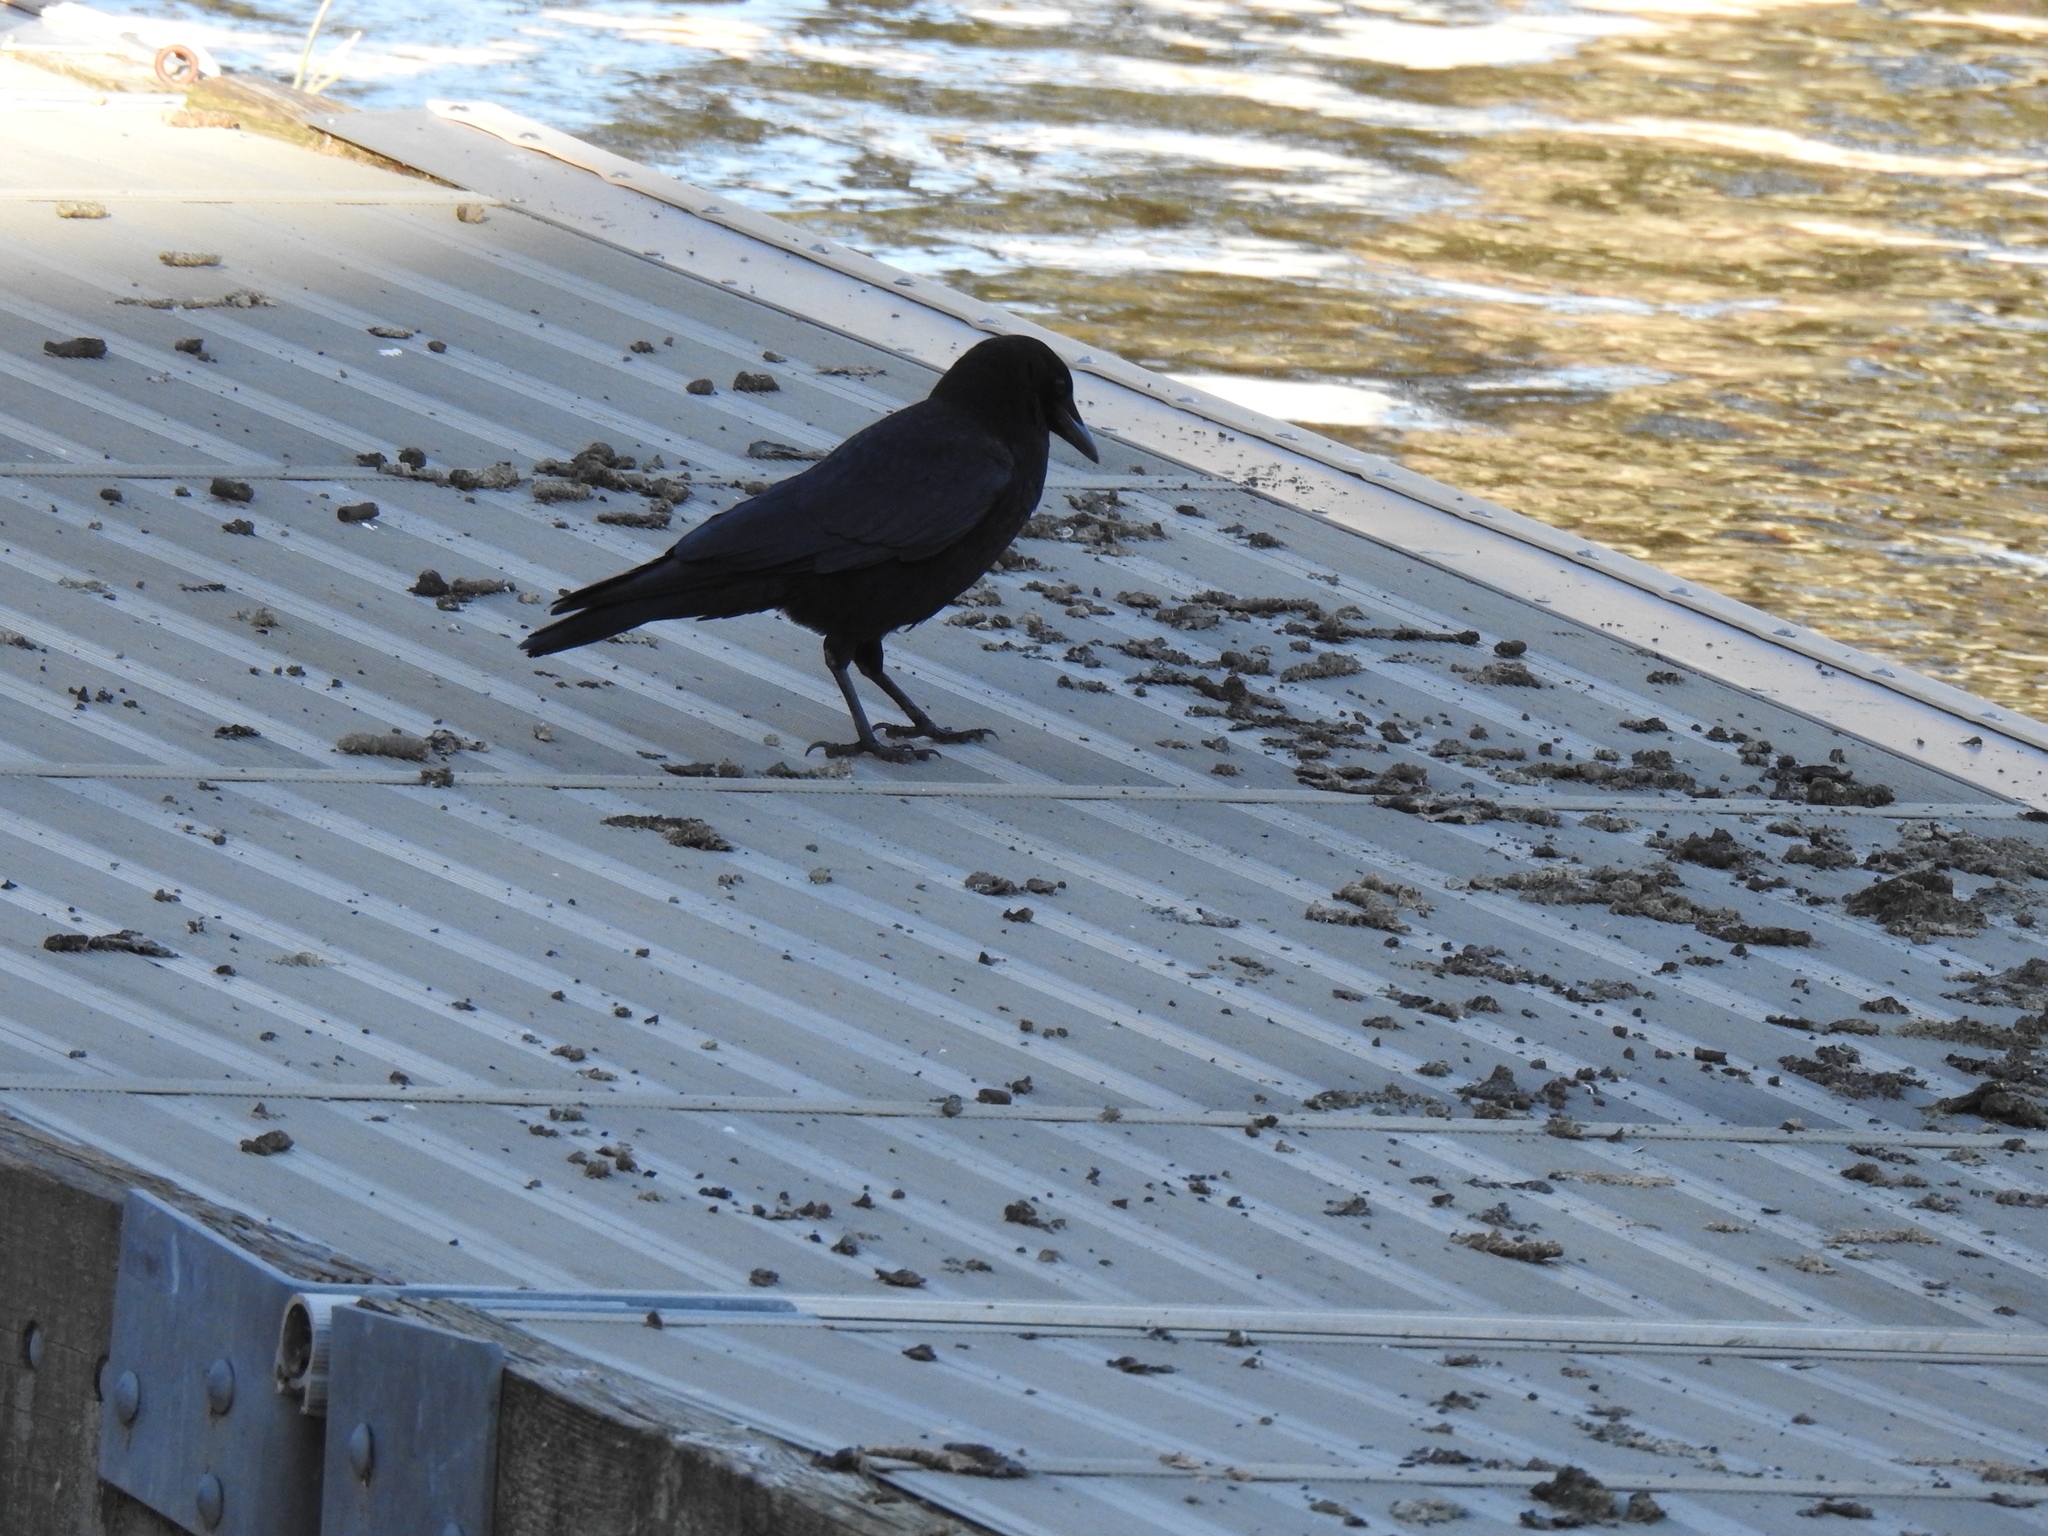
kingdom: Animalia
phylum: Chordata
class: Aves
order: Passeriformes
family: Corvidae
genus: Corvus
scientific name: Corvus brachyrhynchos
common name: American crow
